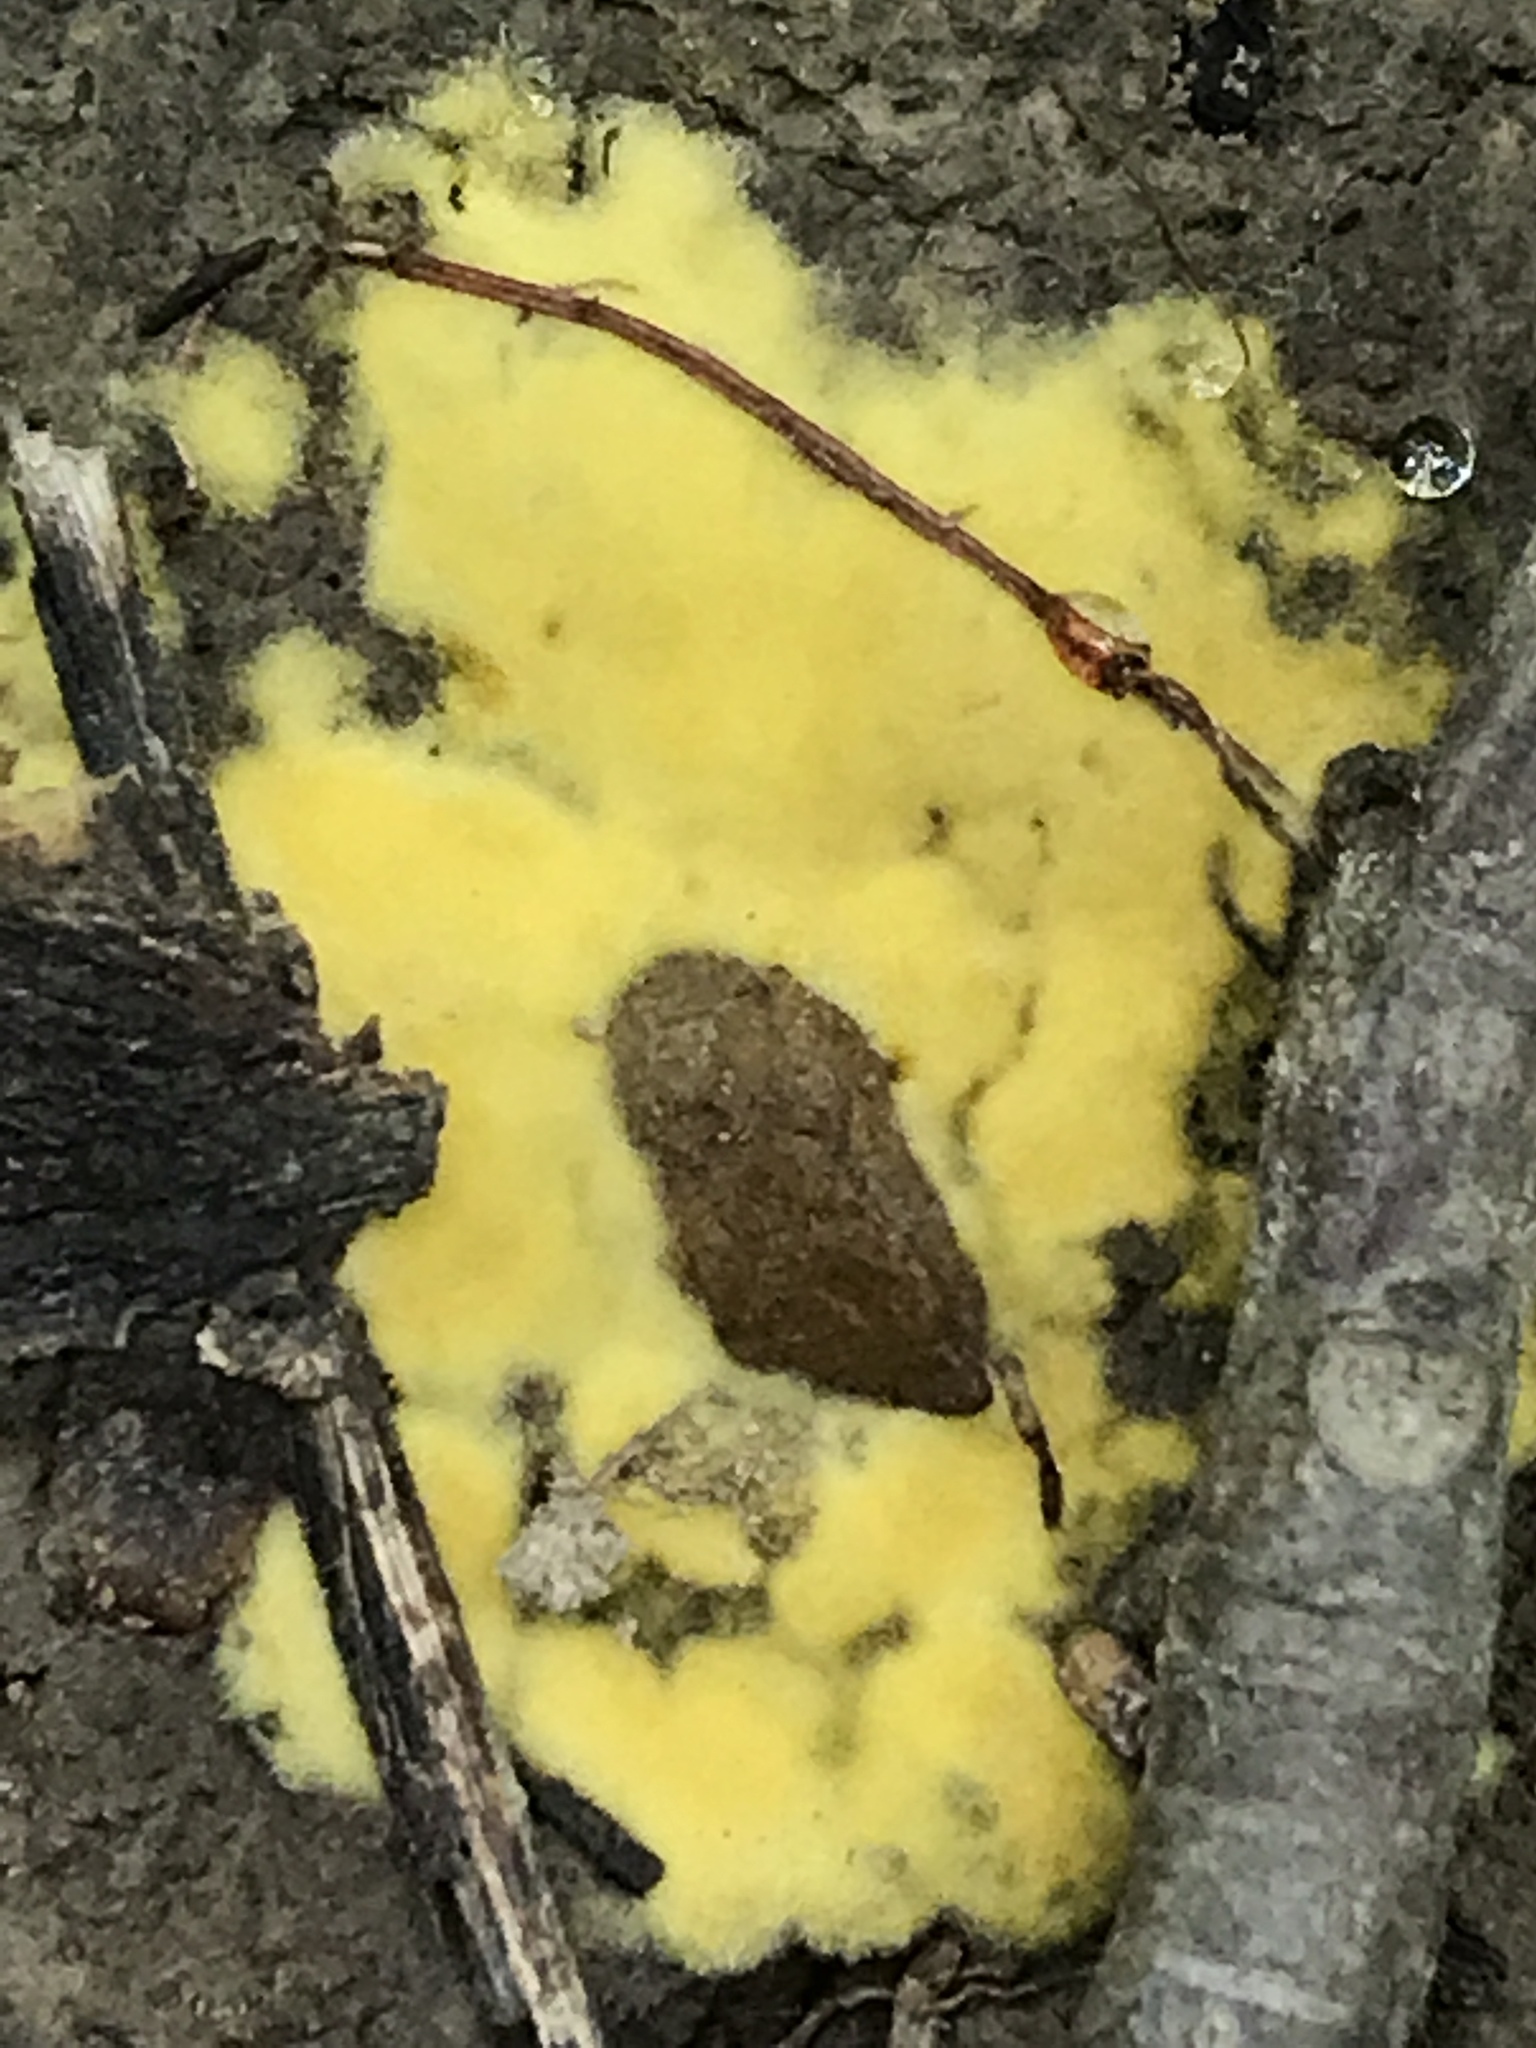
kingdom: Protozoa
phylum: Mycetozoa
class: Myxomycetes
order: Physarales
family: Physaraceae
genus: Fuligo
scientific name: Fuligo septica
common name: Dog vomit slime mold
